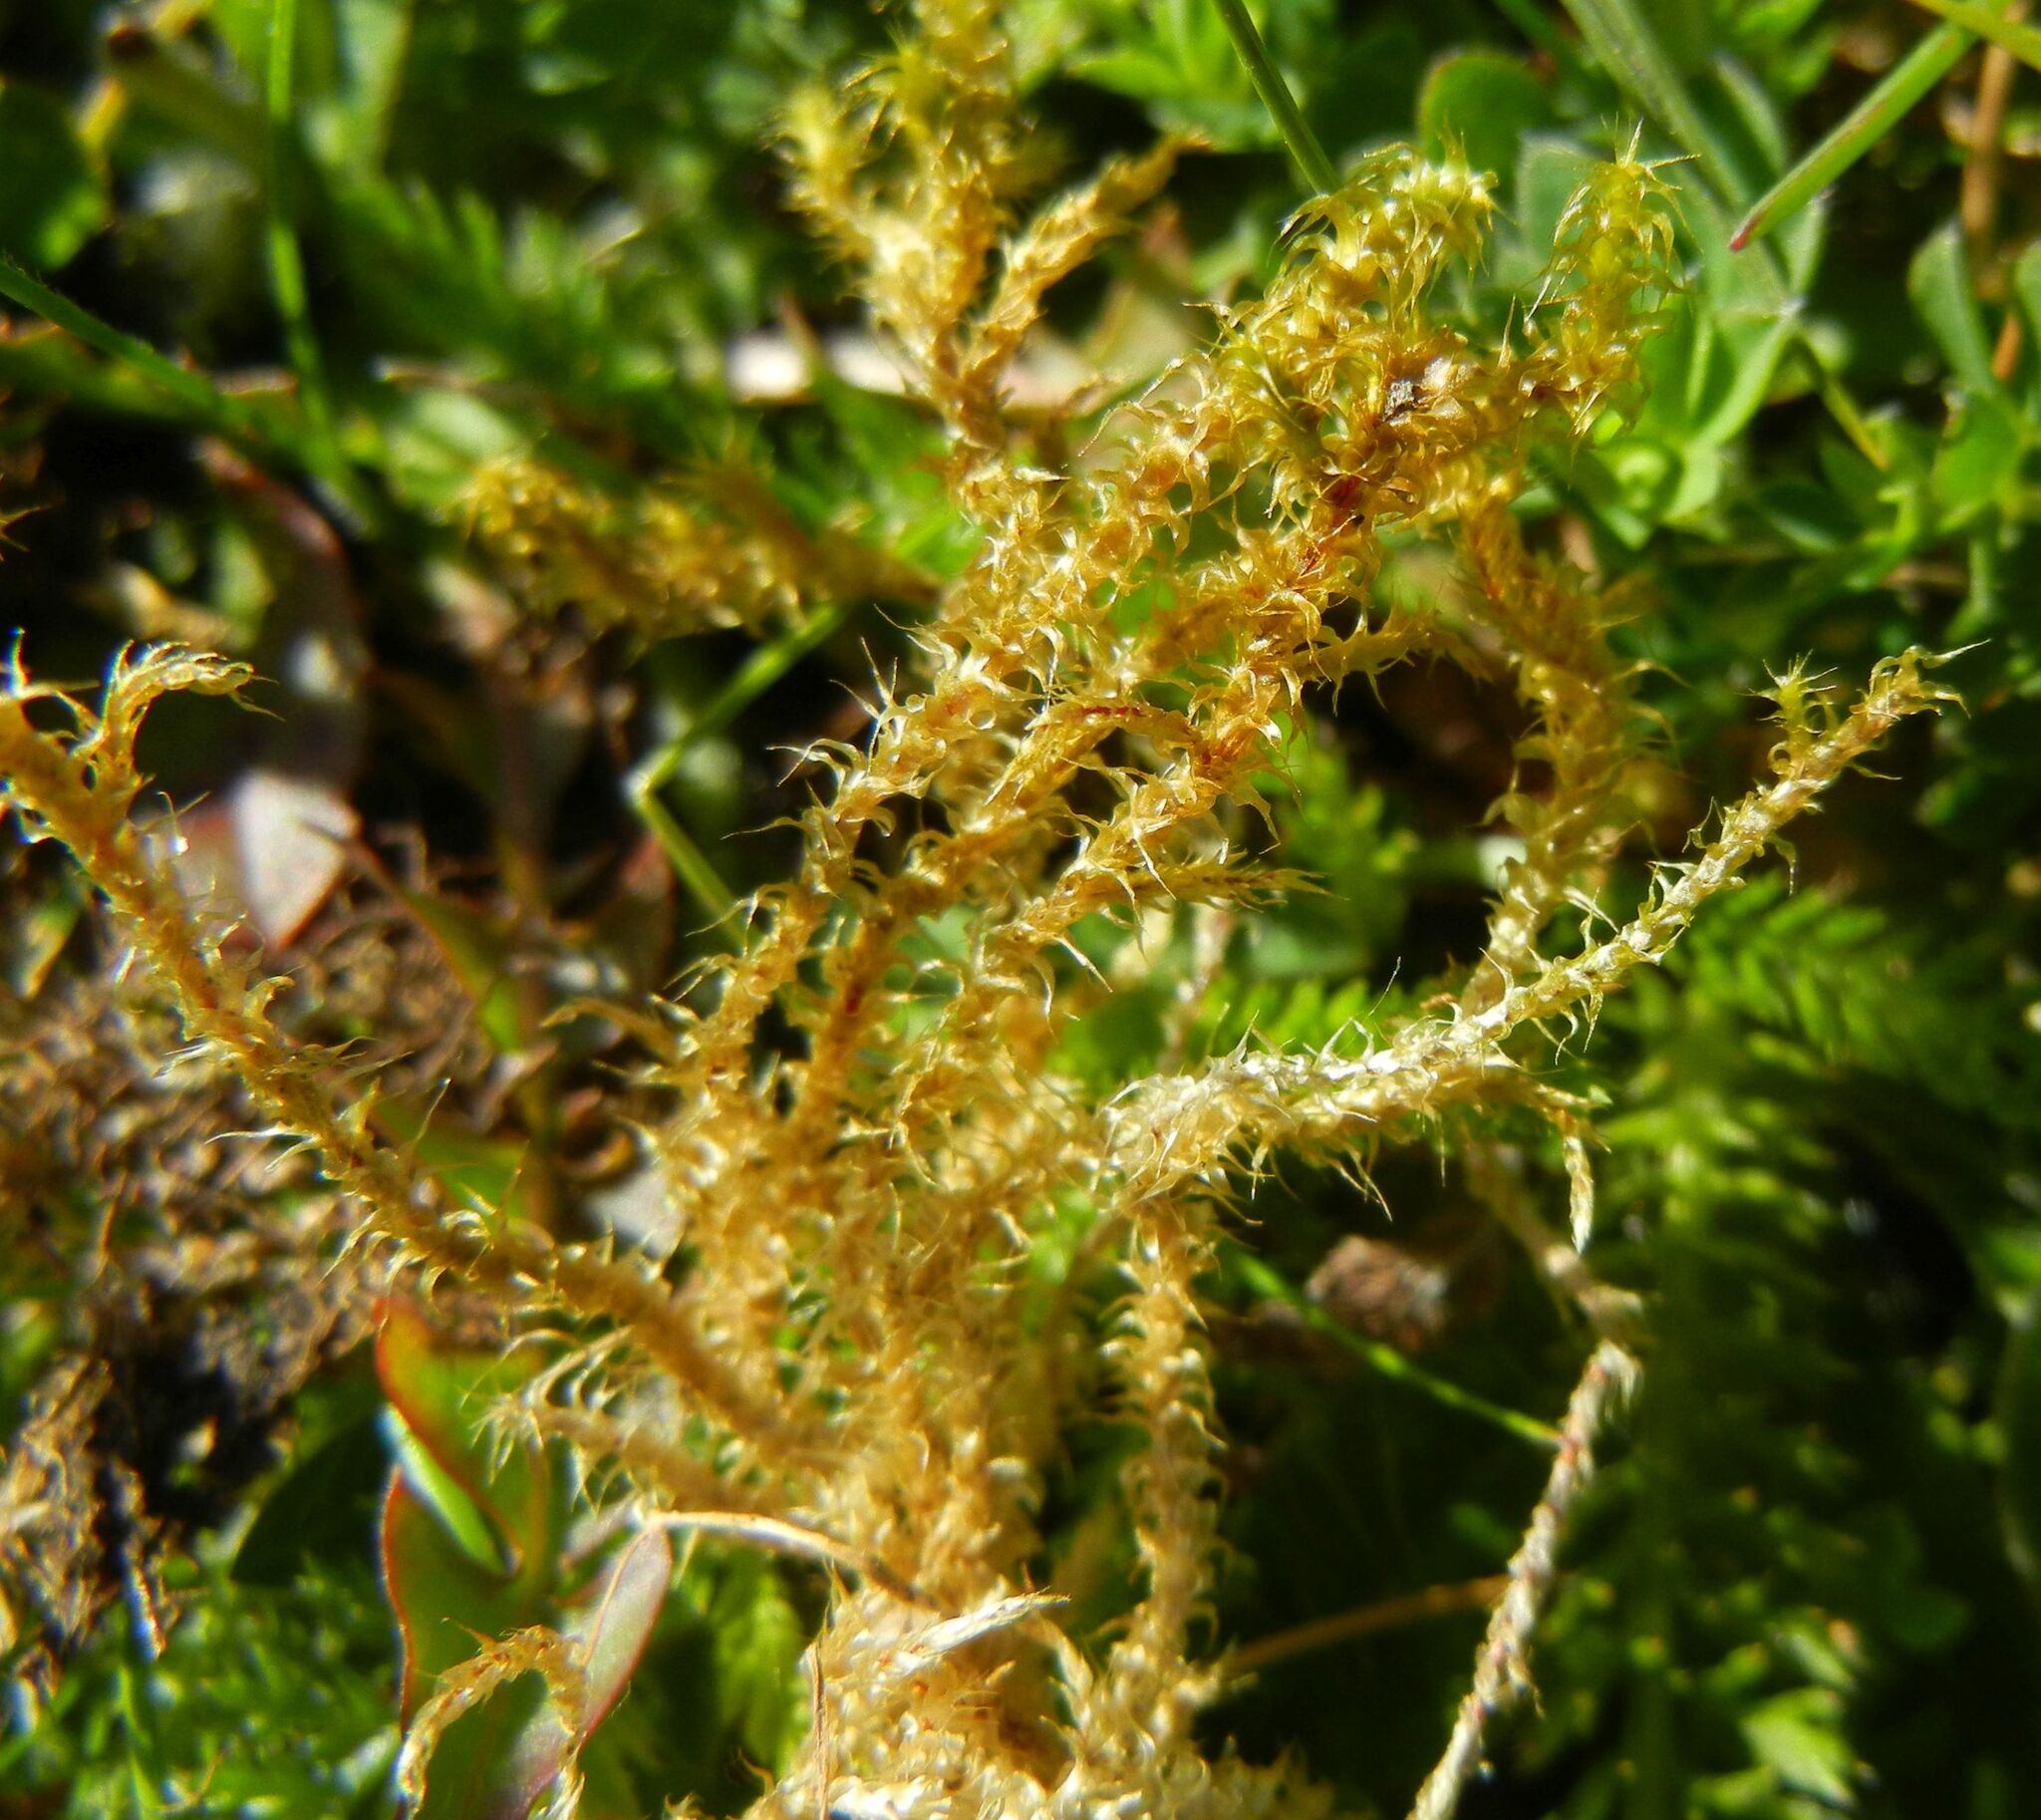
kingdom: Plantae
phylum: Bryophyta
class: Bryopsida
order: Hypnales
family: Hylocomiaceae
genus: Rhytidiadelphus
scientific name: Rhytidiadelphus squarrosus
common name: Springy turf-moss
